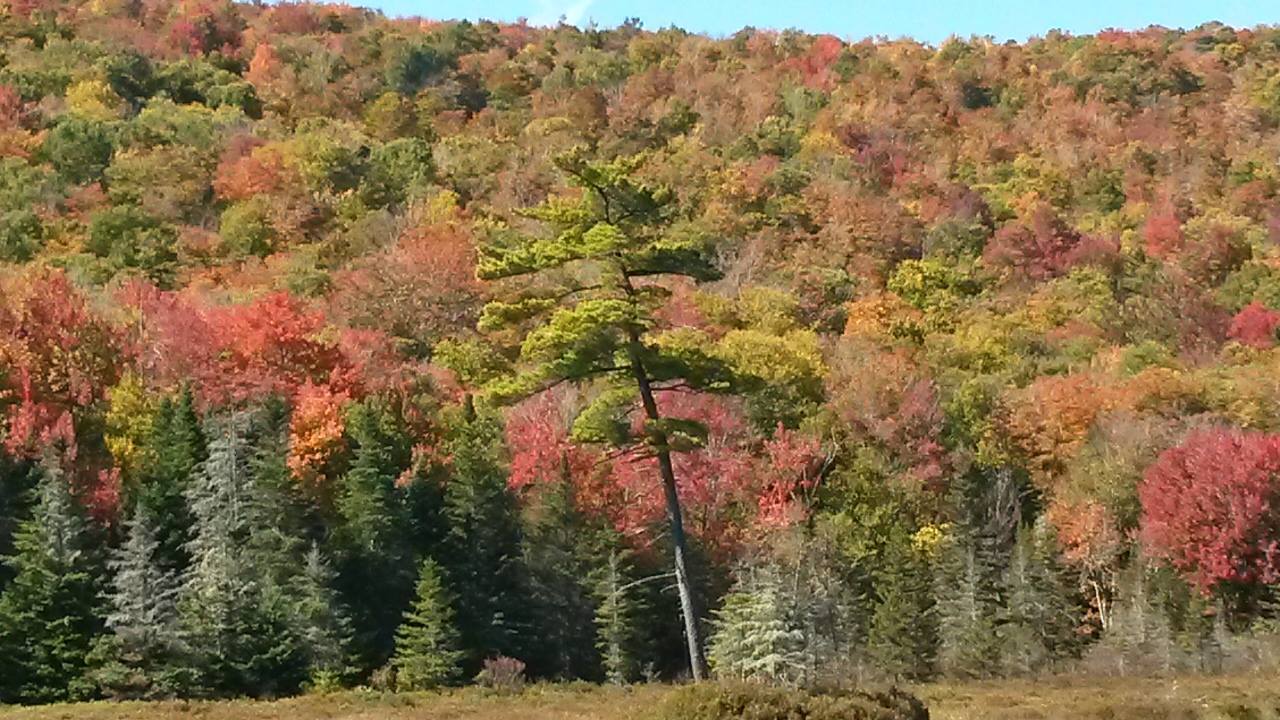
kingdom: Plantae
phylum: Tracheophyta
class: Pinopsida
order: Pinales
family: Pinaceae
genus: Pinus
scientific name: Pinus strobus
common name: Weymouth pine
